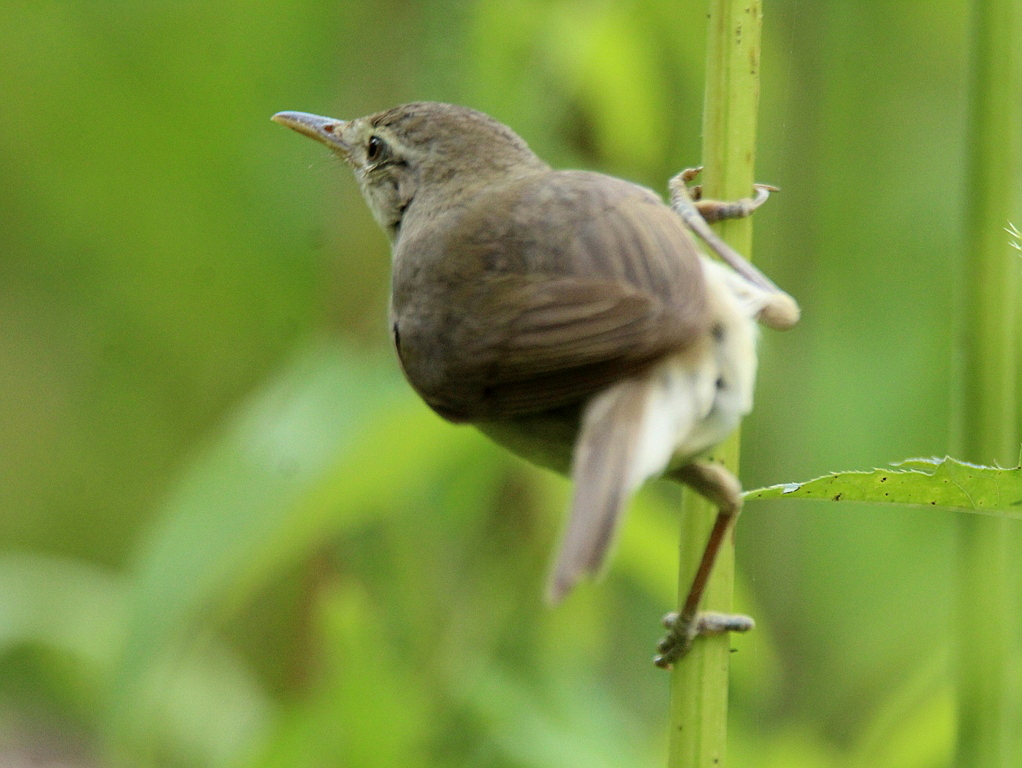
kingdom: Animalia
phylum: Chordata
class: Aves
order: Passeriformes
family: Acrocephalidae
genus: Acrocephalus
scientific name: Acrocephalus dumetorum
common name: Blyth's reed warbler
